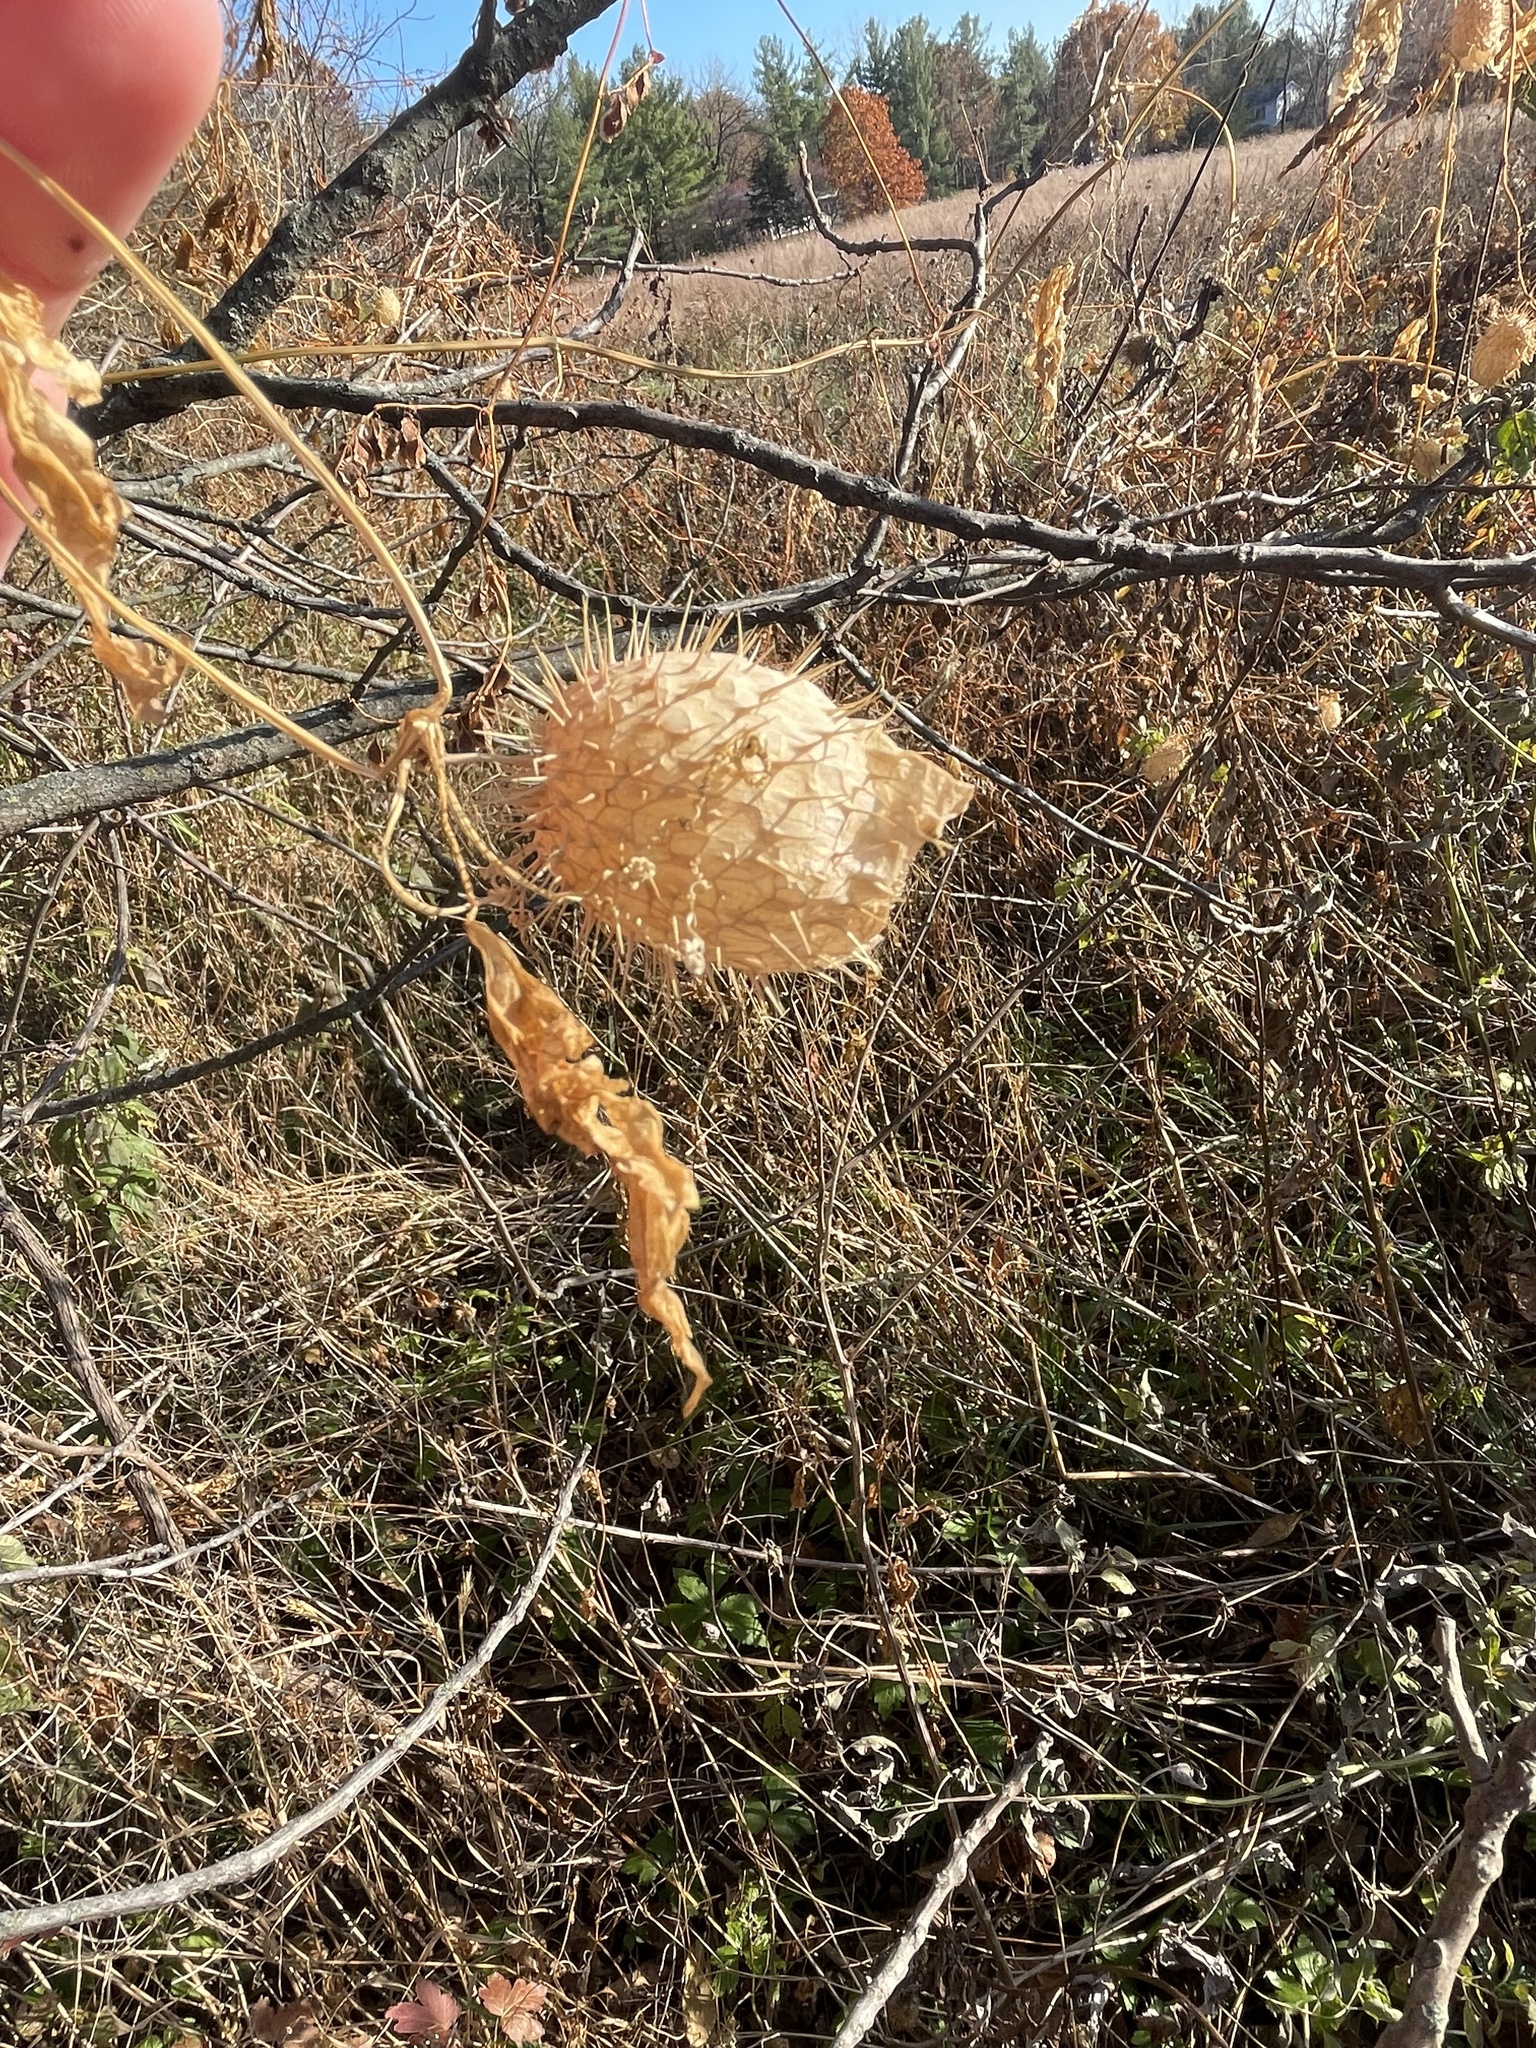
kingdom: Plantae
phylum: Tracheophyta
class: Magnoliopsida
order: Cucurbitales
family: Cucurbitaceae
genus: Echinocystis
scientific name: Echinocystis lobata
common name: Wild cucumber
